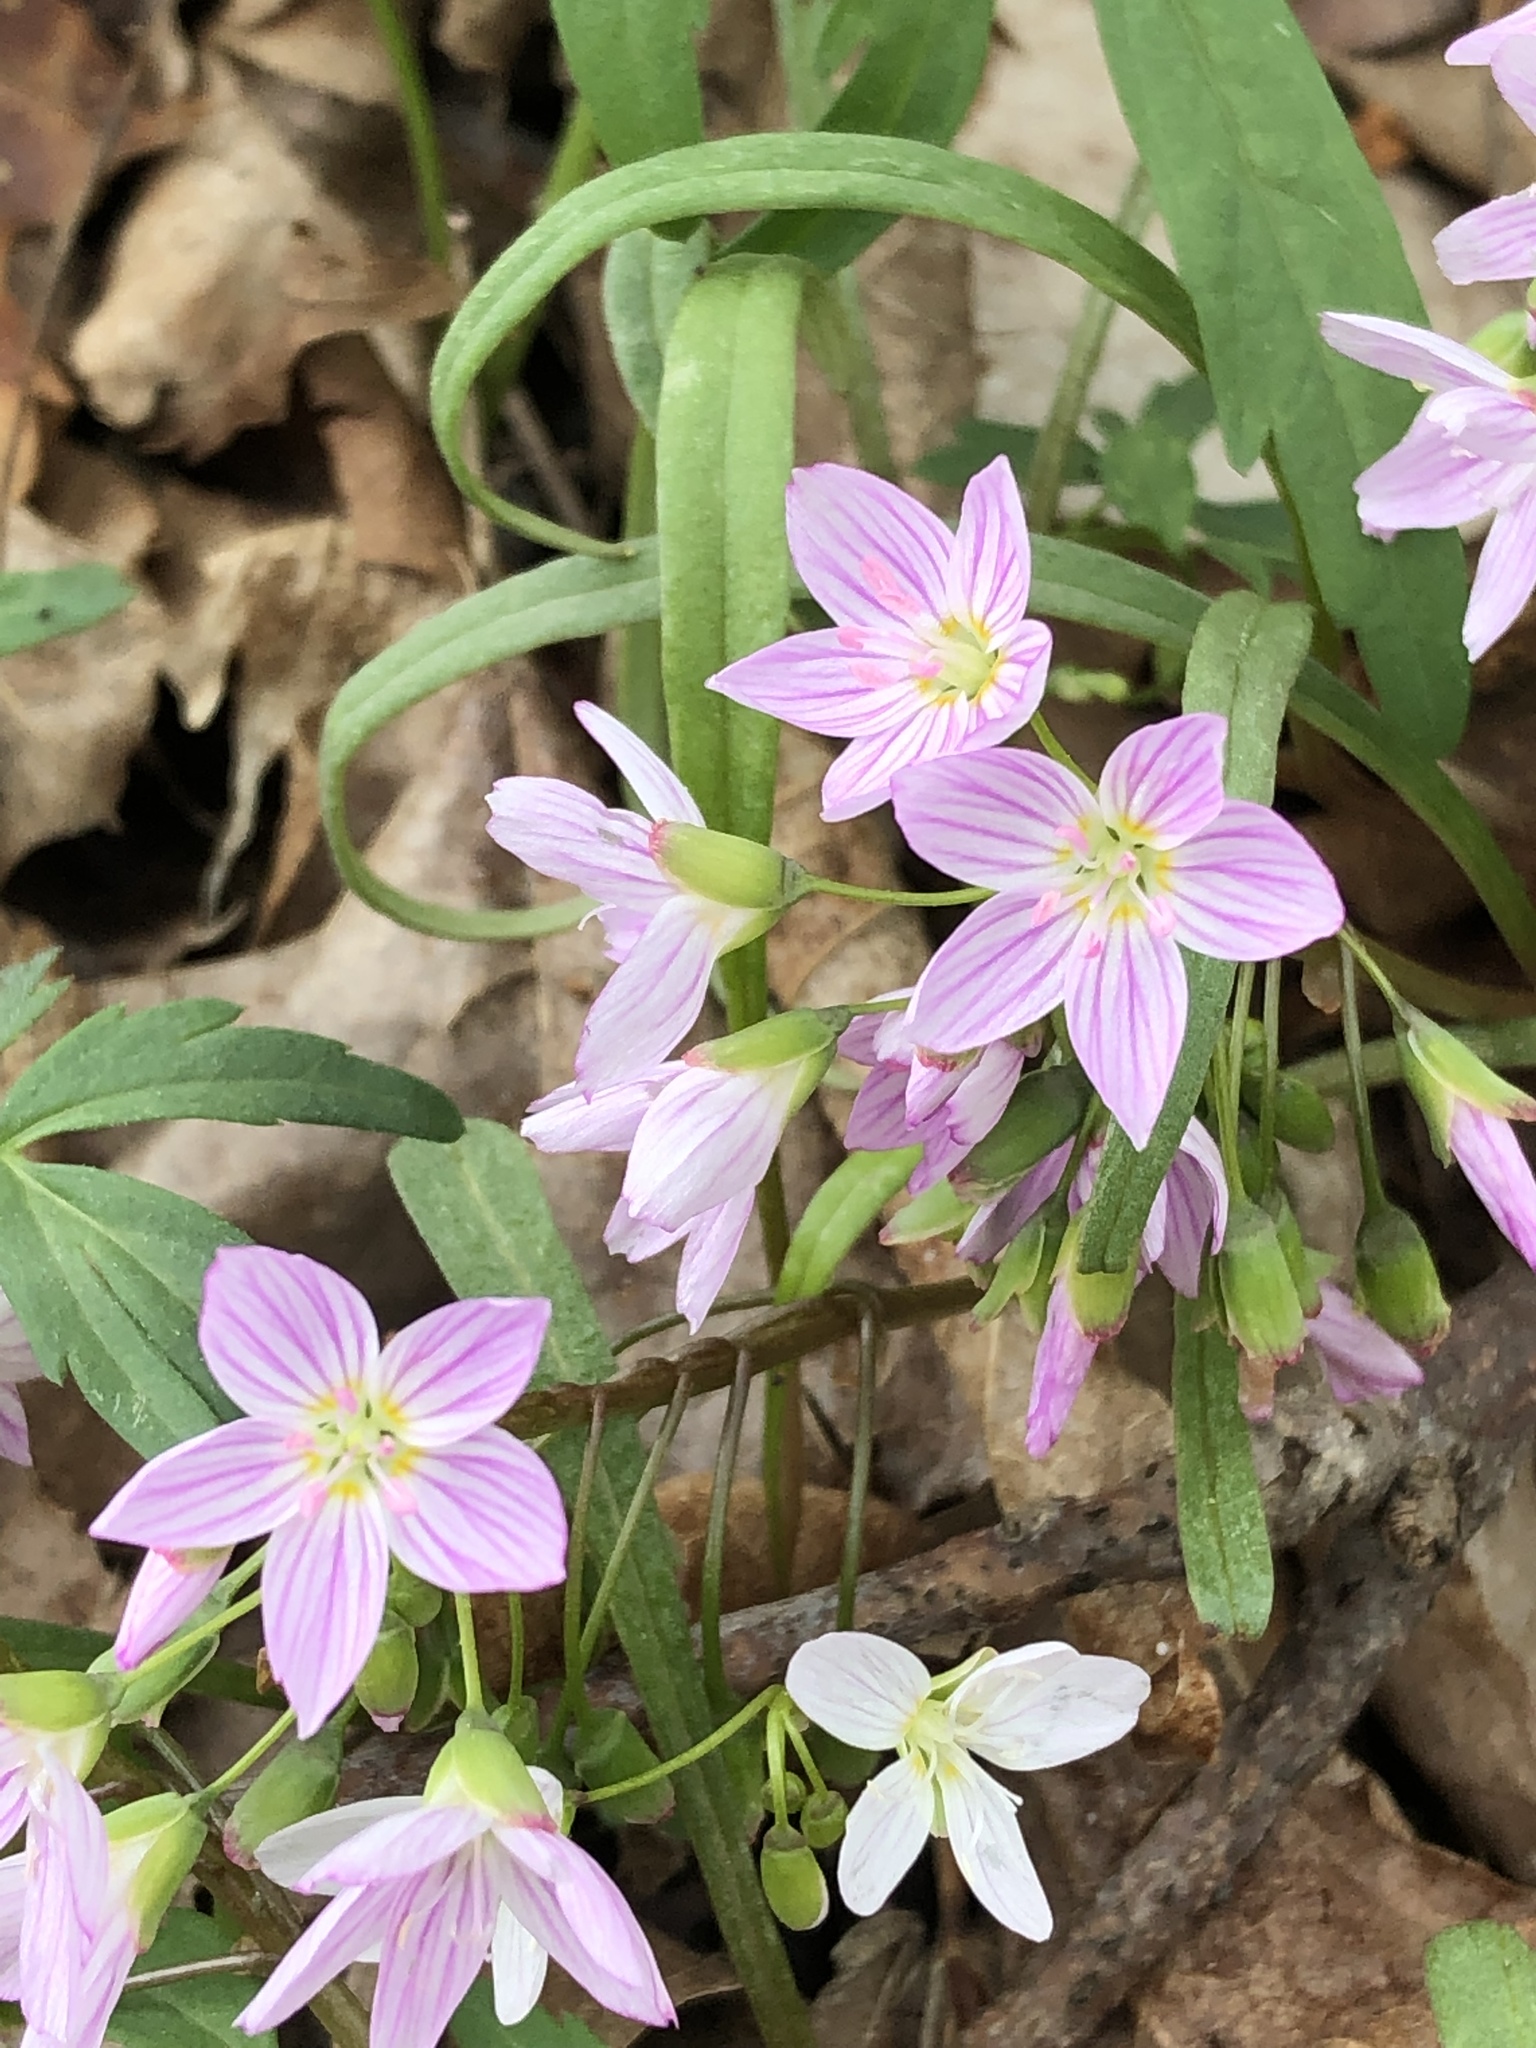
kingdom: Plantae
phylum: Tracheophyta
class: Magnoliopsida
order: Caryophyllales
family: Montiaceae
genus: Claytonia
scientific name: Claytonia virginica
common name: Virginia springbeauty
